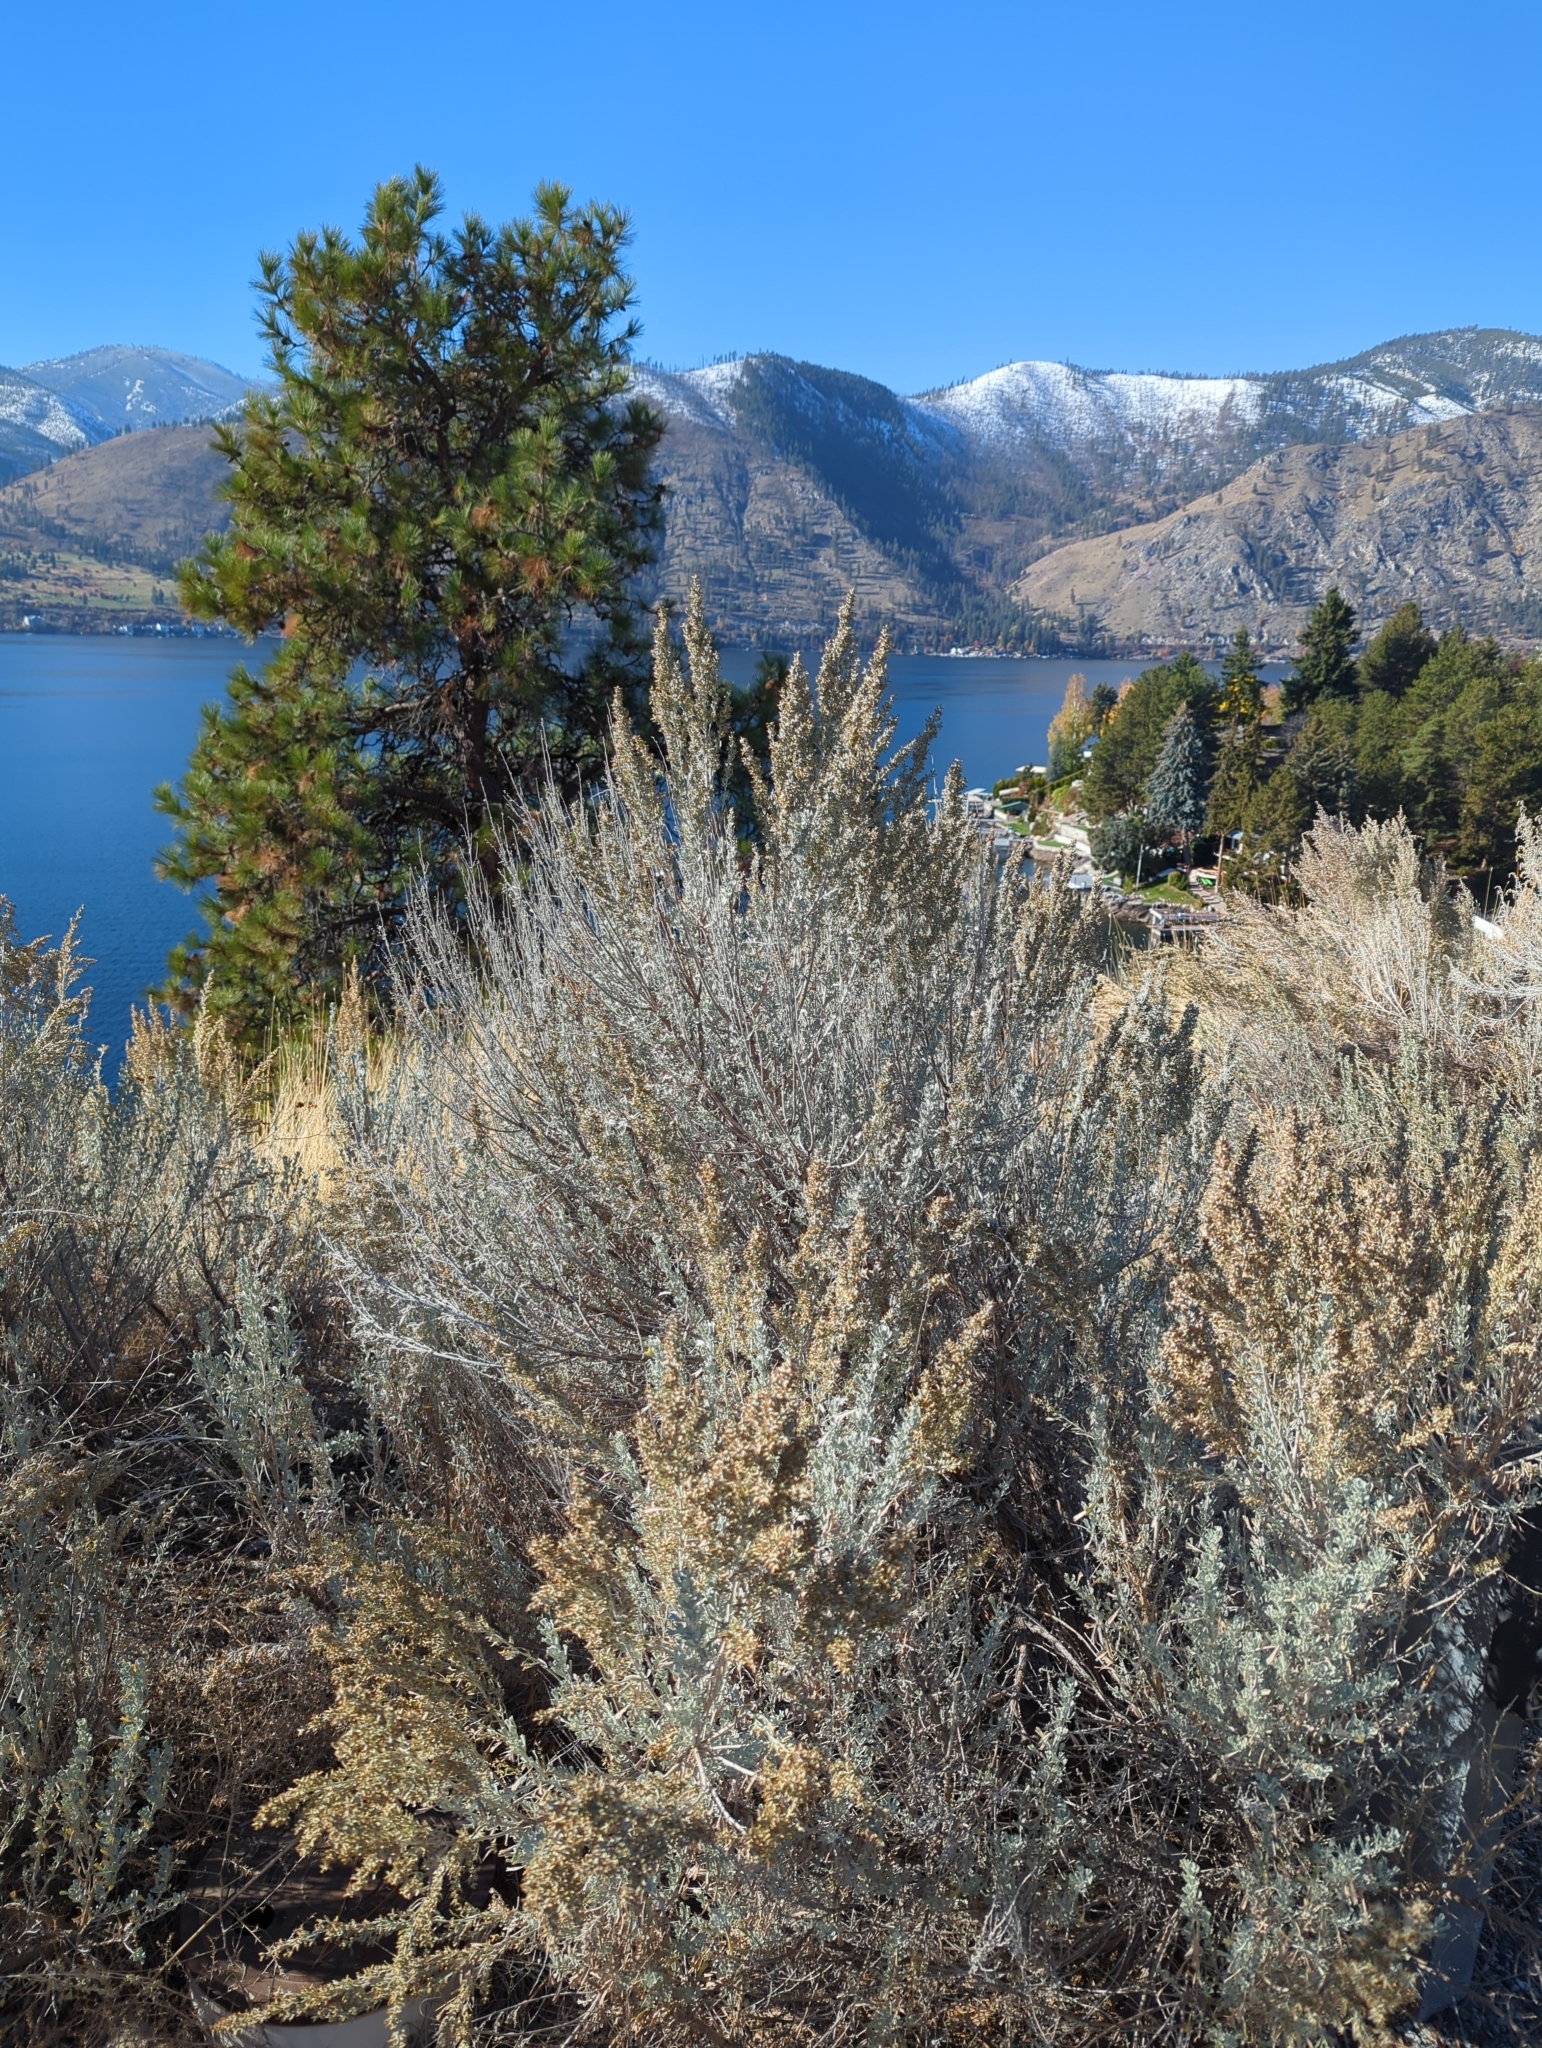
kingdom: Plantae
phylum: Tracheophyta
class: Magnoliopsida
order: Asterales
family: Asteraceae
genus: Artemisia
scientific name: Artemisia tridentata
